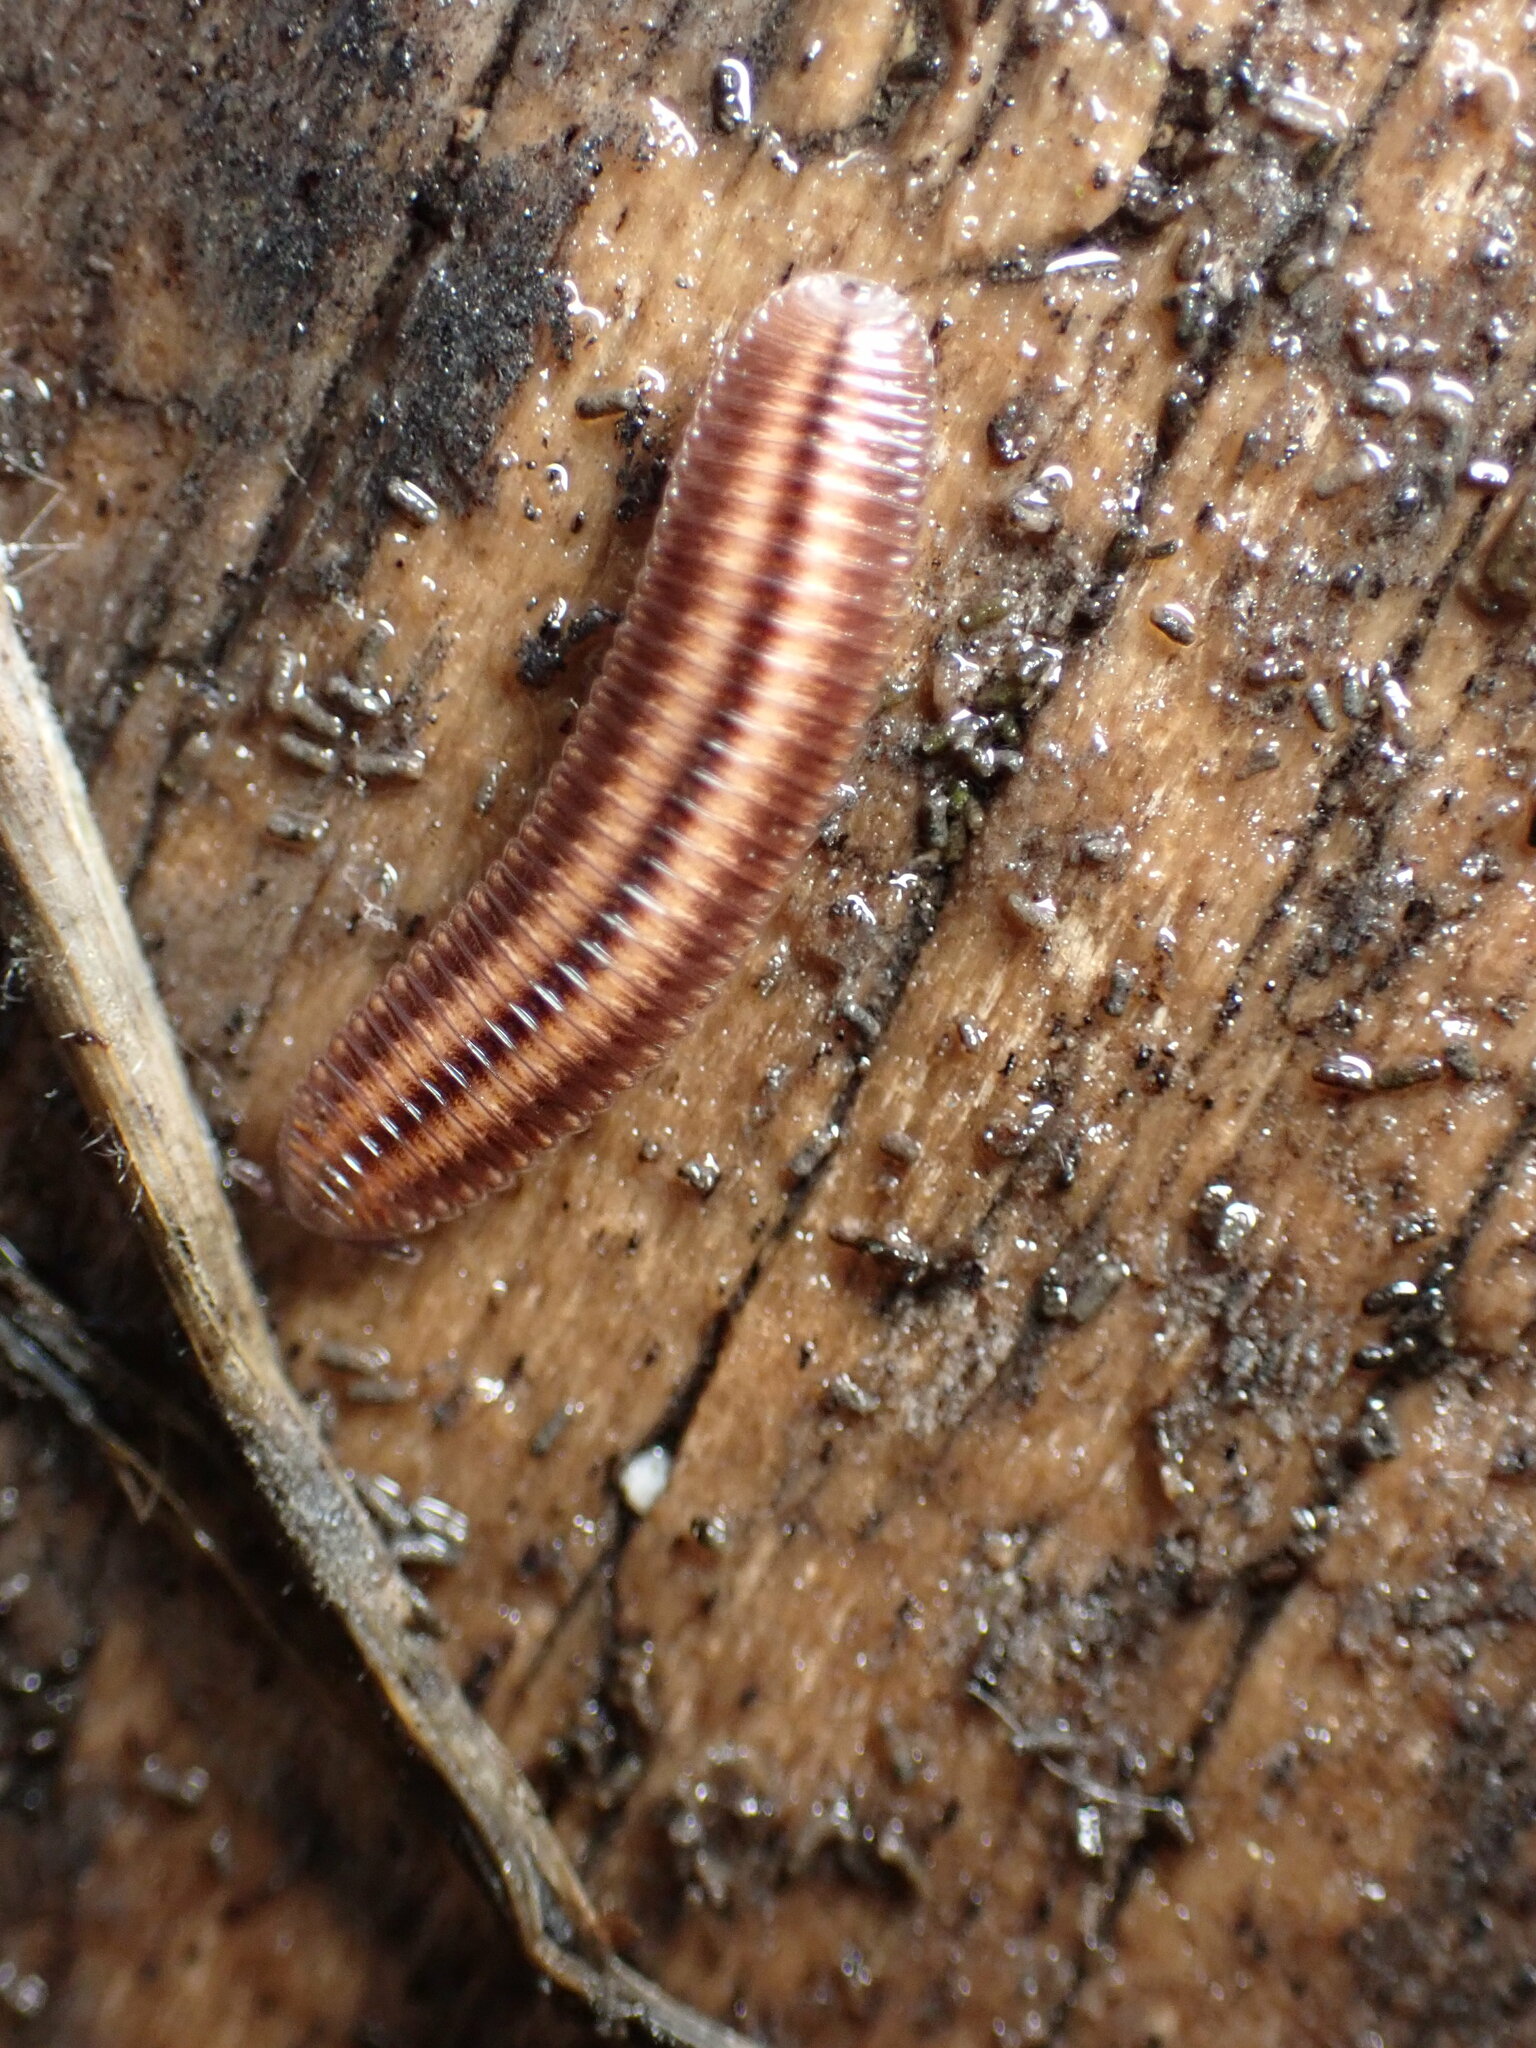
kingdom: Animalia
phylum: Arthropoda
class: Diplopoda
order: Polyzoniida
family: Hirudisomatidae
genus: Octoglena
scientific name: Octoglena bivirgatum
